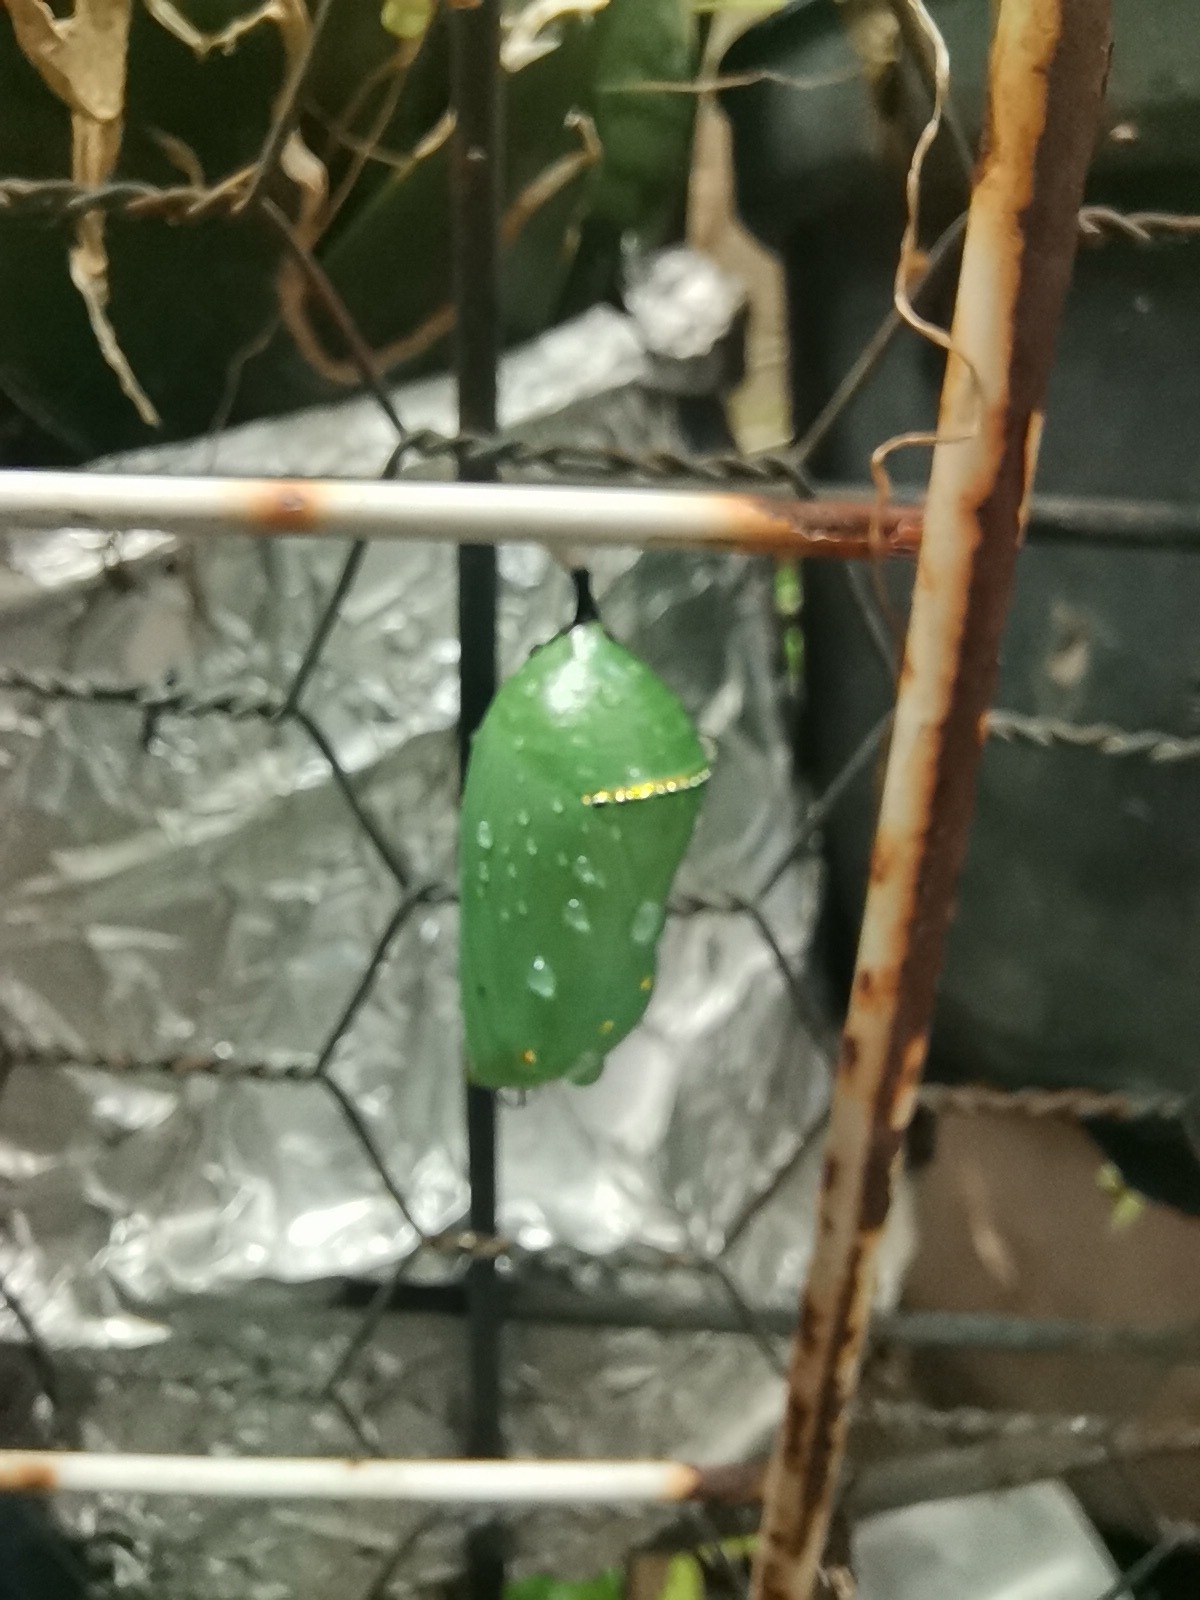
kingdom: Animalia
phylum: Arthropoda
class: Insecta
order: Lepidoptera
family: Nymphalidae
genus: Danaus
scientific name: Danaus plexippus
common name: Monarch
